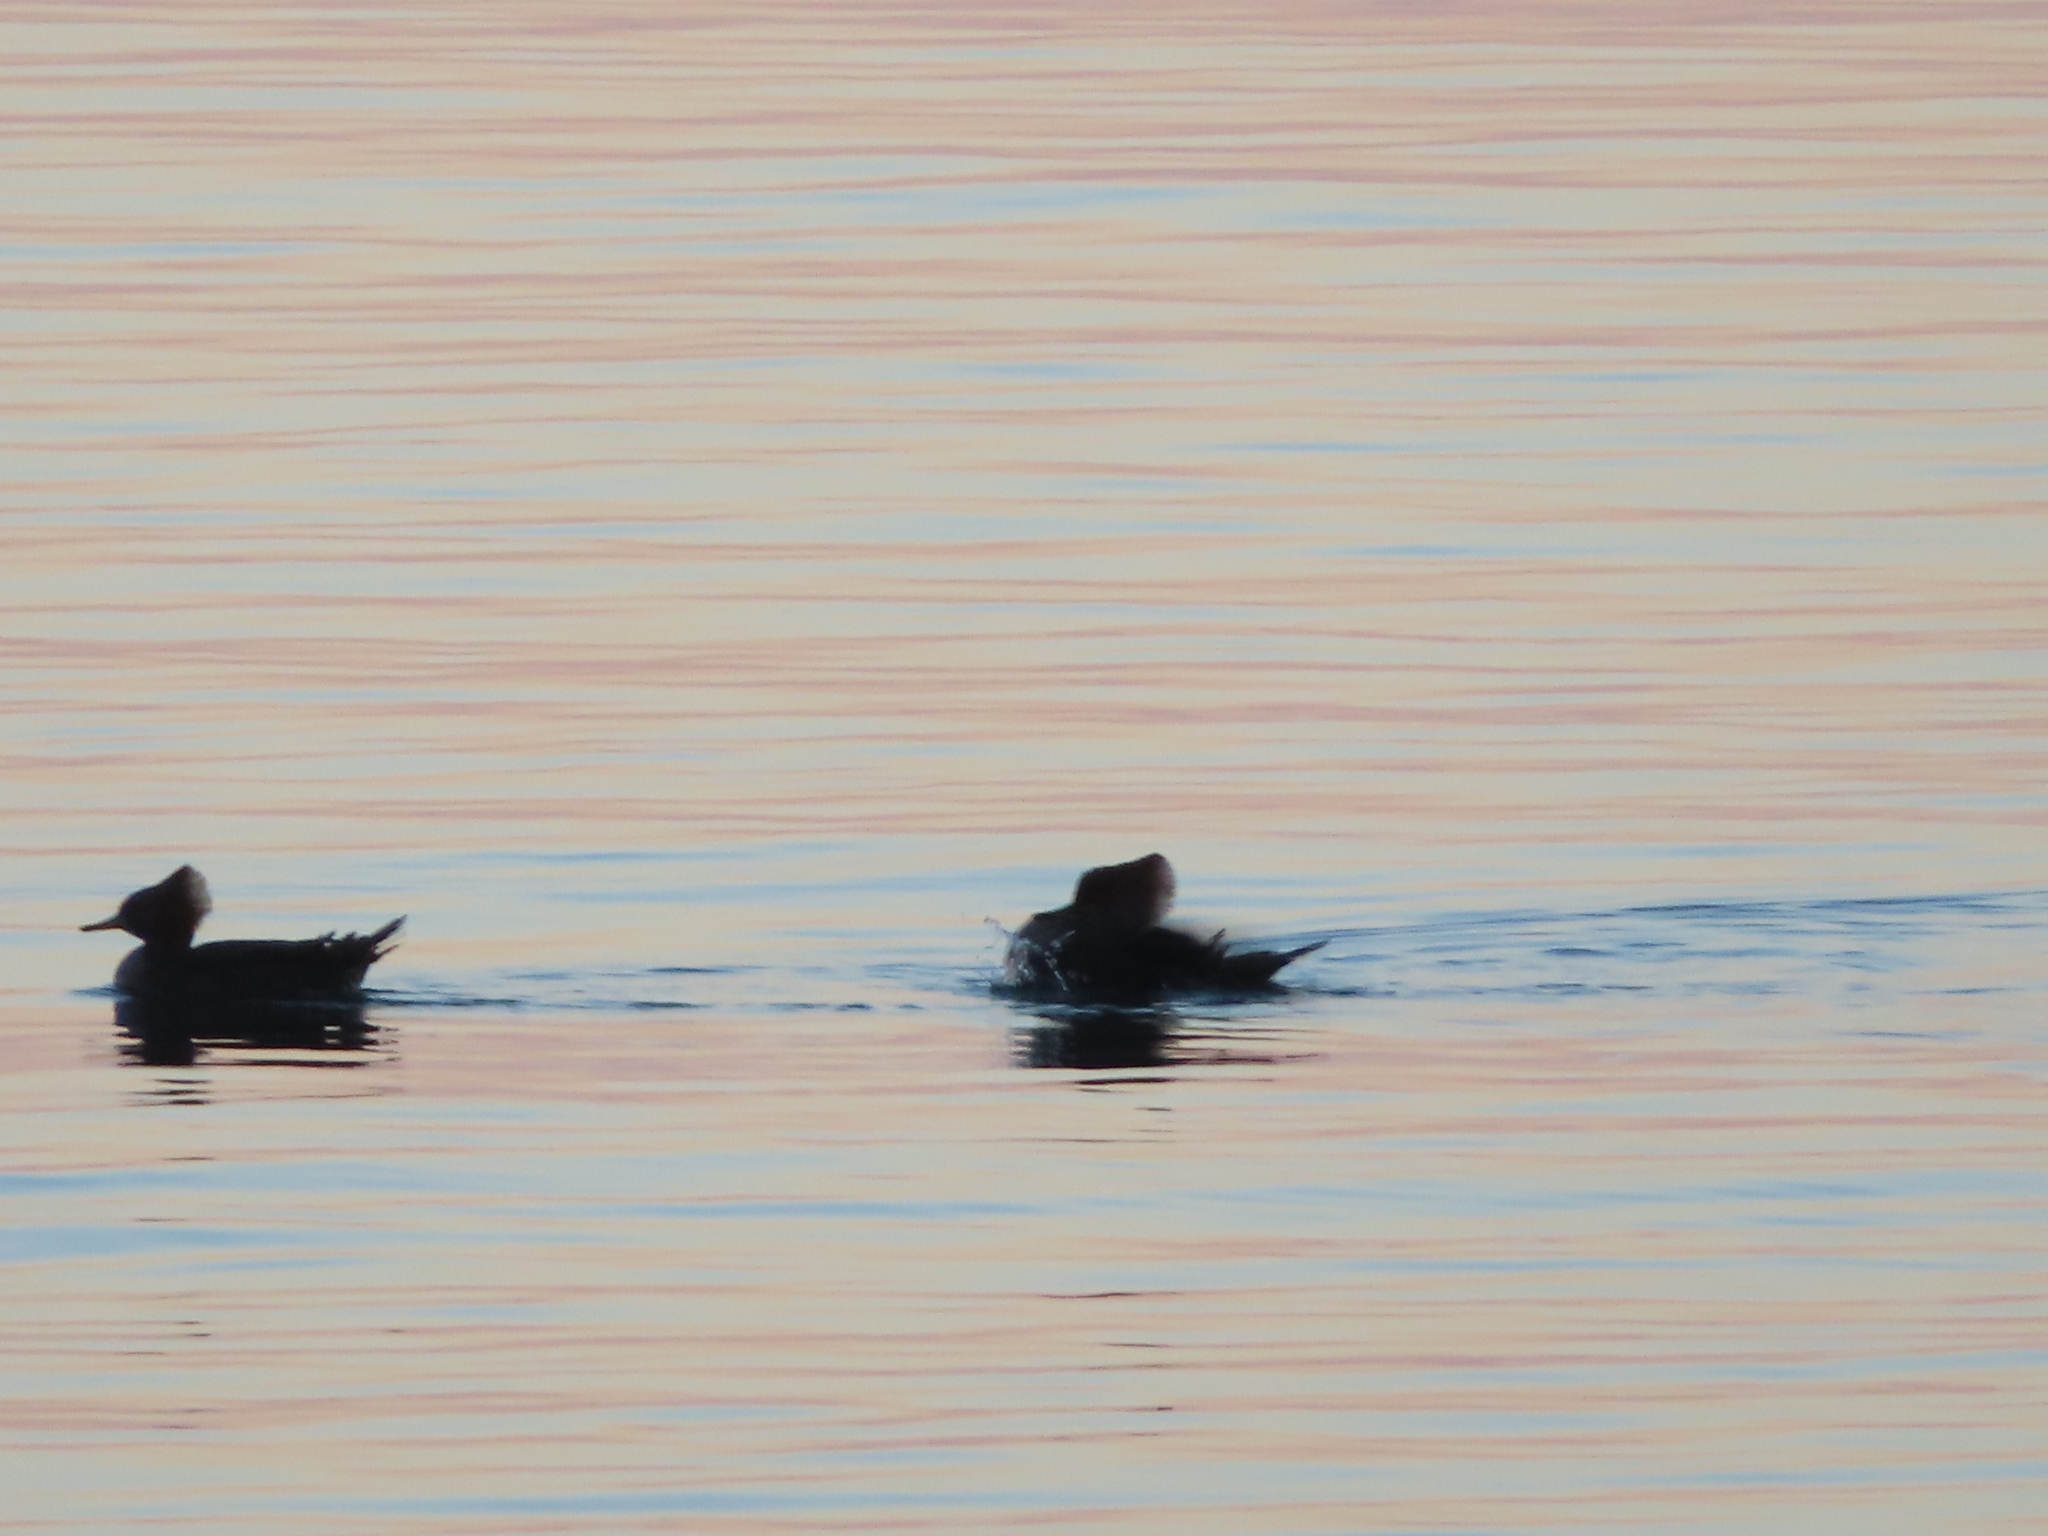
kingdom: Animalia
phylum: Chordata
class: Aves
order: Anseriformes
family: Anatidae
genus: Lophodytes
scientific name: Lophodytes cucullatus
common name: Hooded merganser
